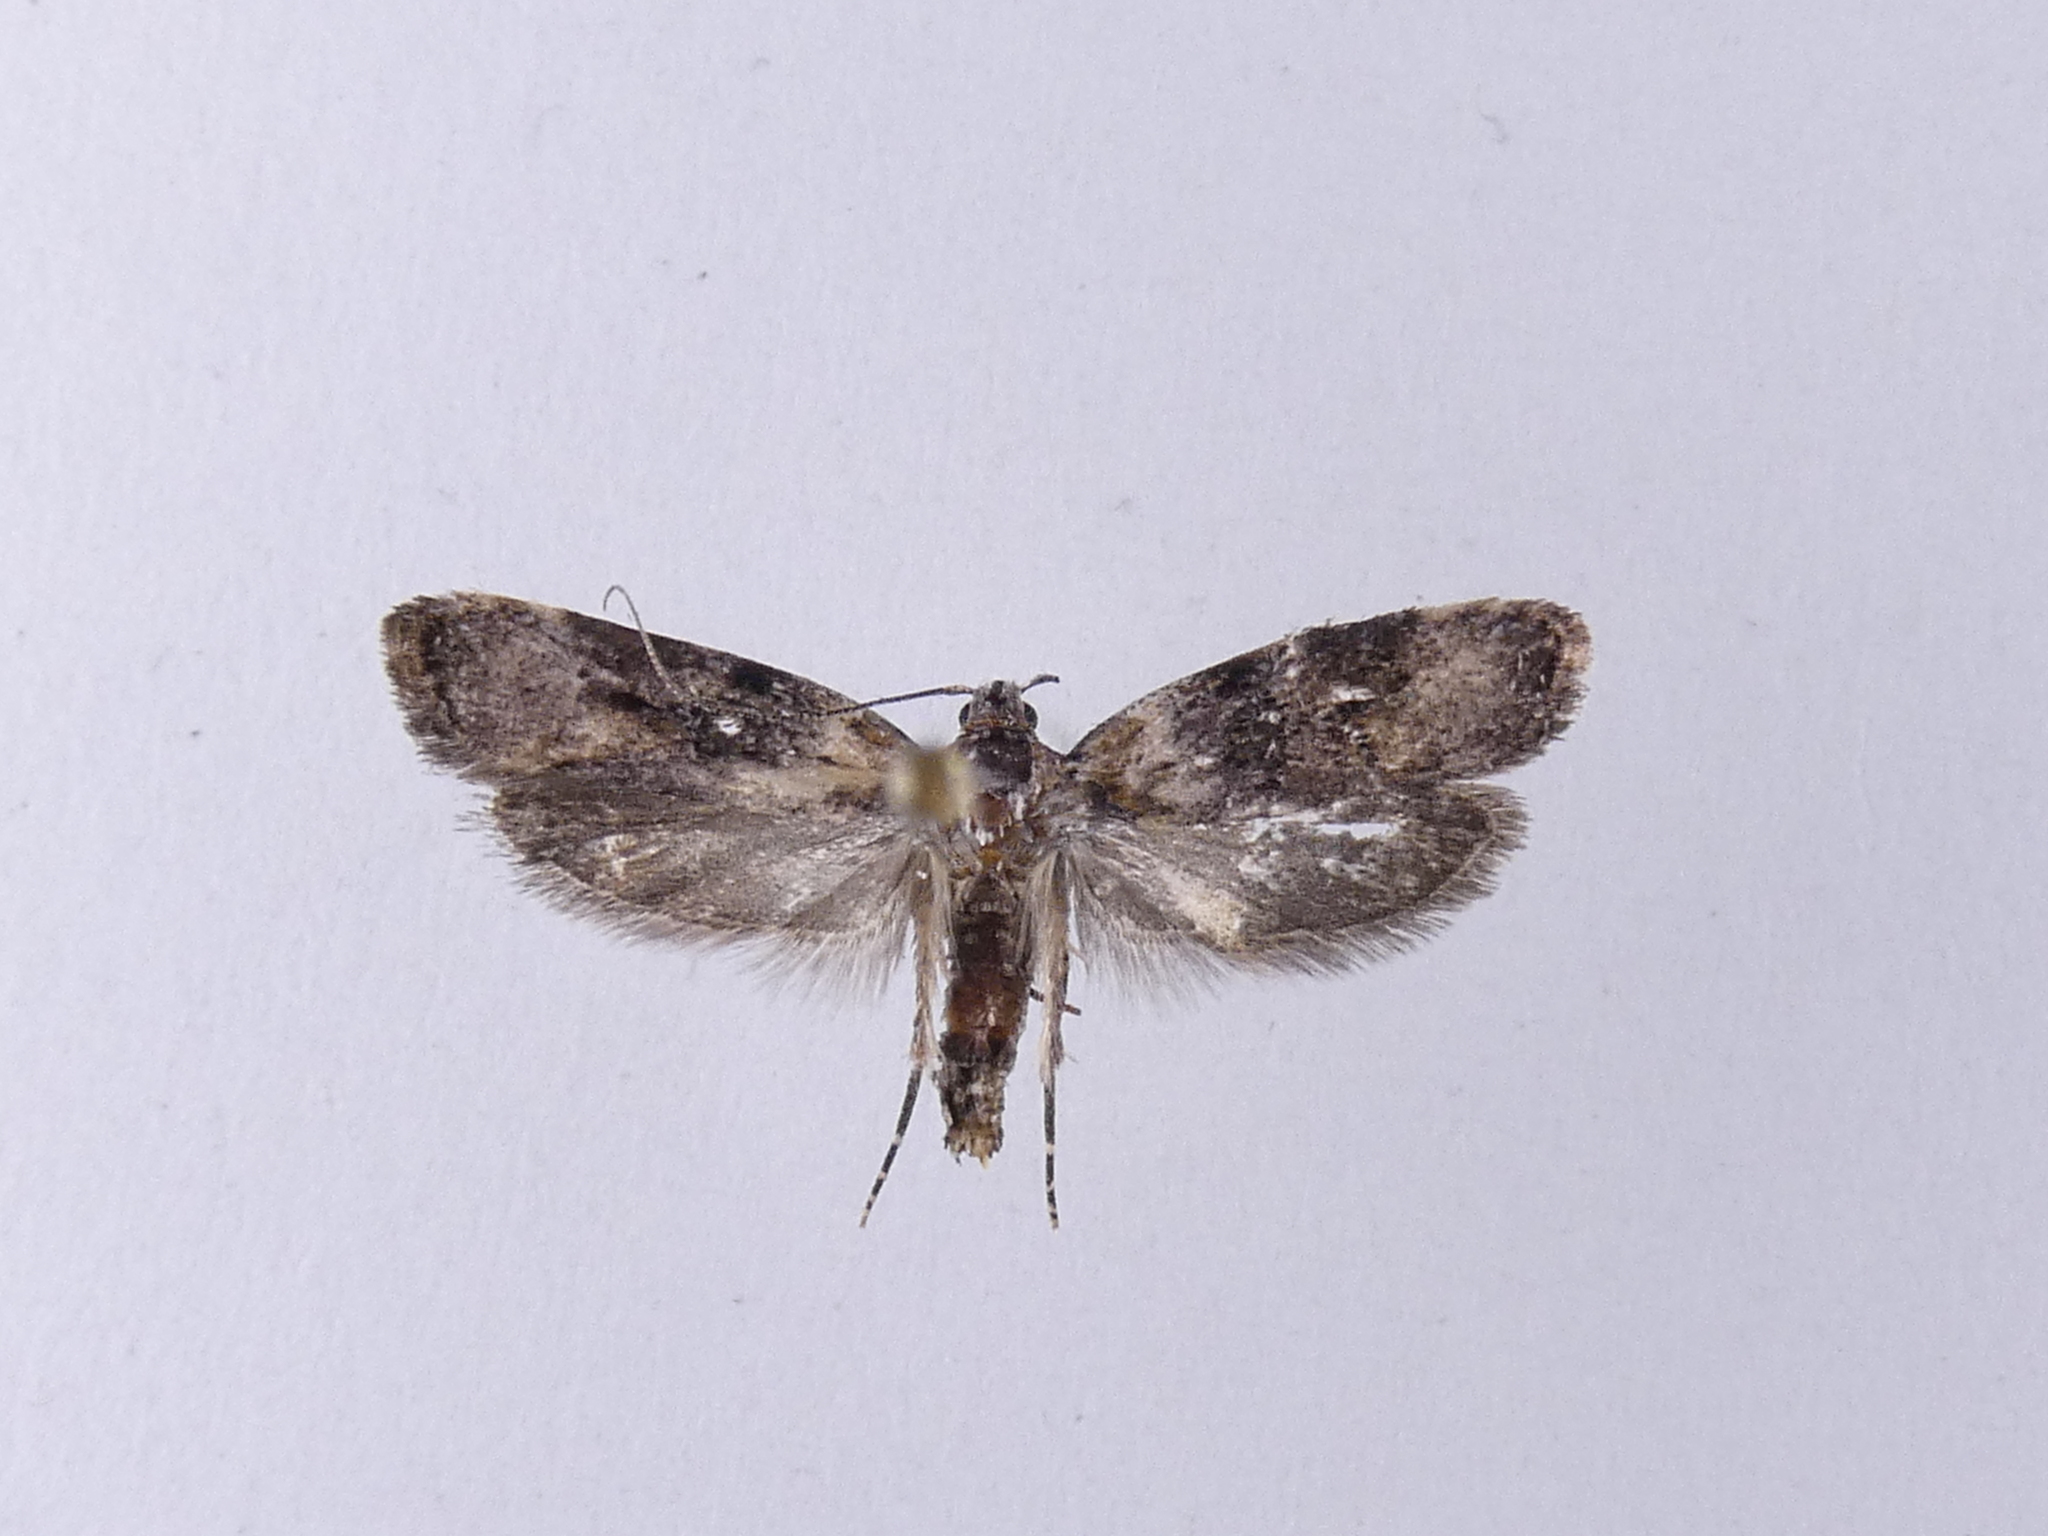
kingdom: Animalia
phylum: Arthropoda
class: Insecta
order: Lepidoptera
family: Oecophoridae
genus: Izatha
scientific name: Izatha metadelta
